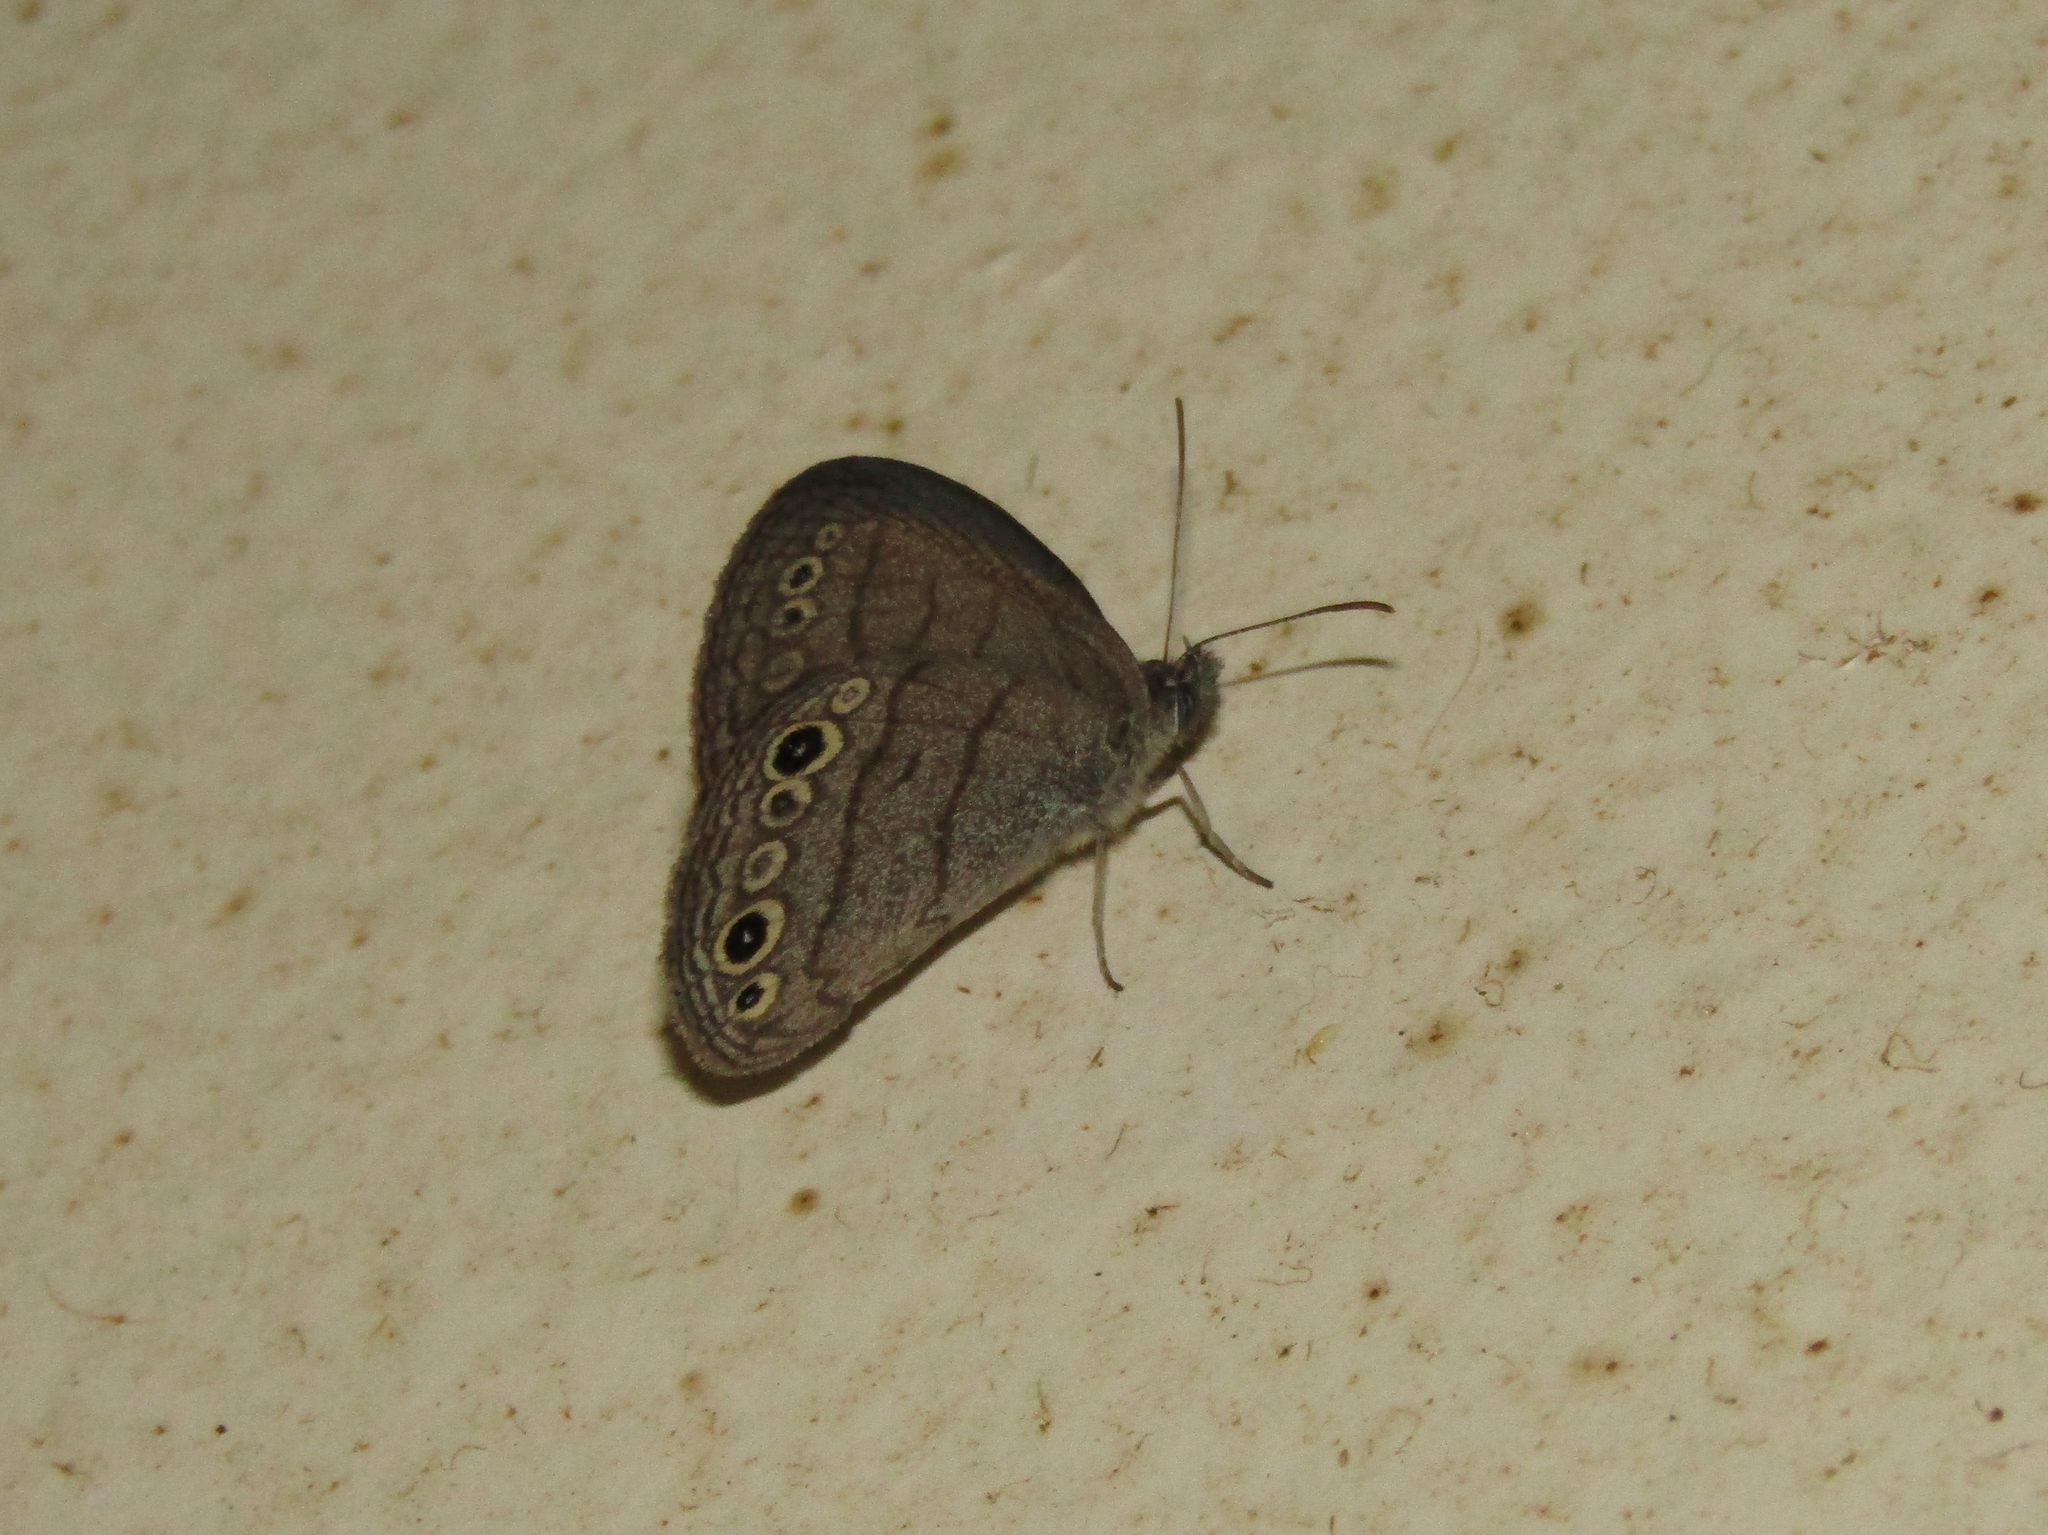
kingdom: Animalia
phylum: Arthropoda
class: Insecta
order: Lepidoptera
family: Nymphalidae
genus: Hermeuptychia
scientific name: Hermeuptychia hermes
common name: Hermes satyr
